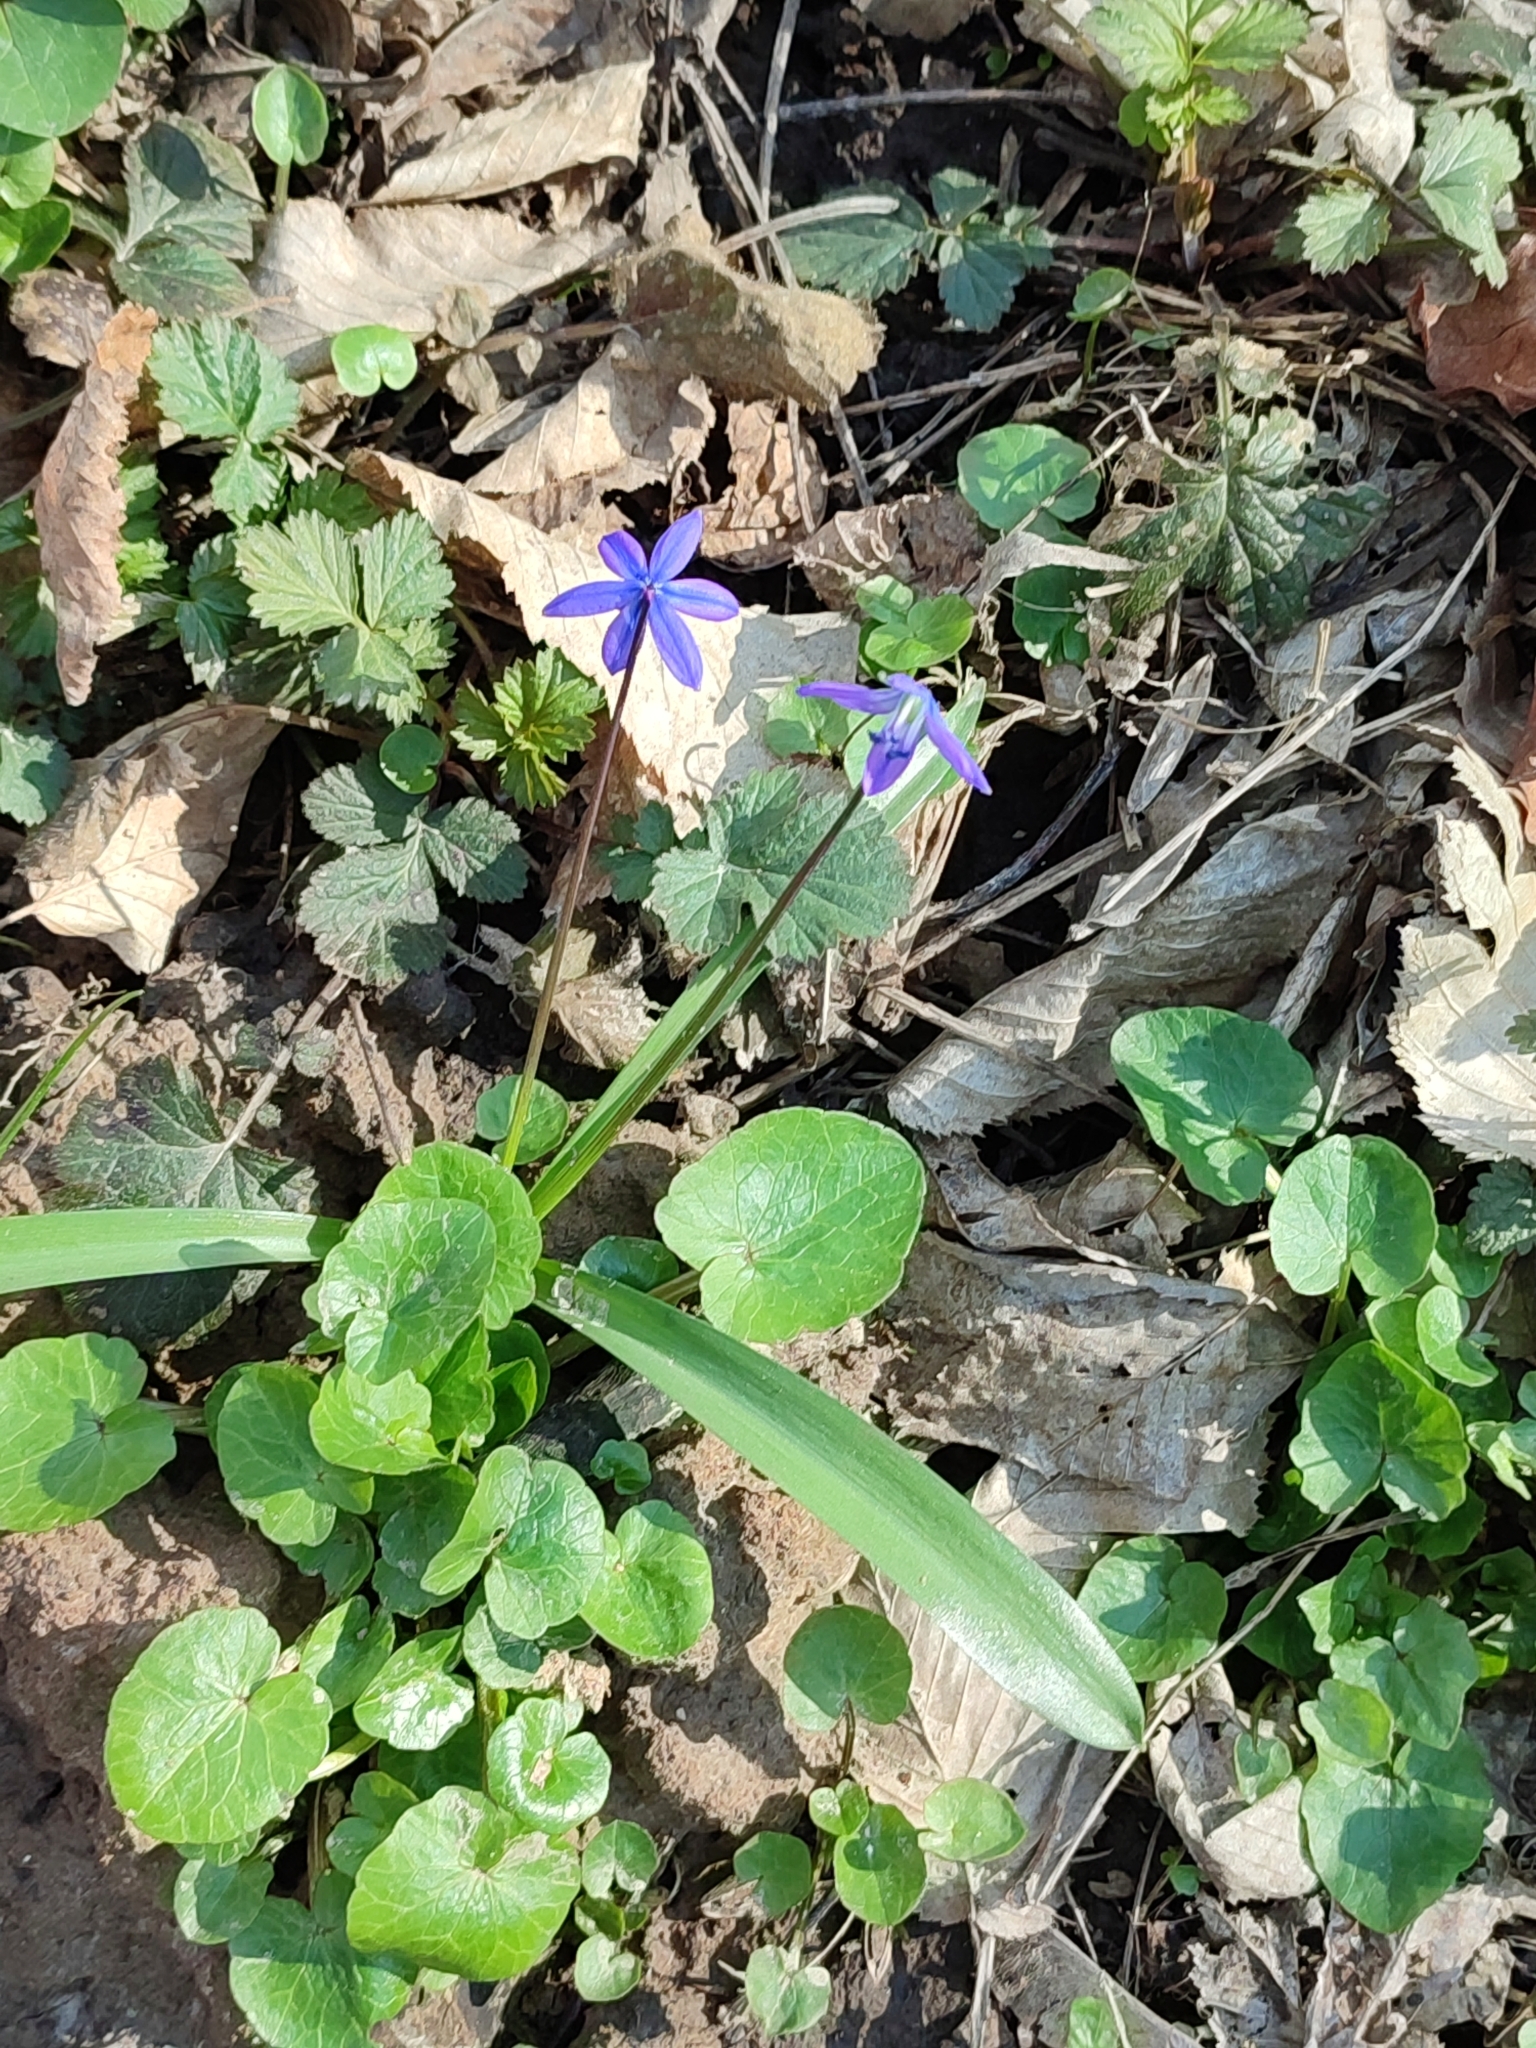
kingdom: Plantae
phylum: Tracheophyta
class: Liliopsida
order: Asparagales
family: Asparagaceae
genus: Scilla
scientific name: Scilla siberica
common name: Siberian squill
